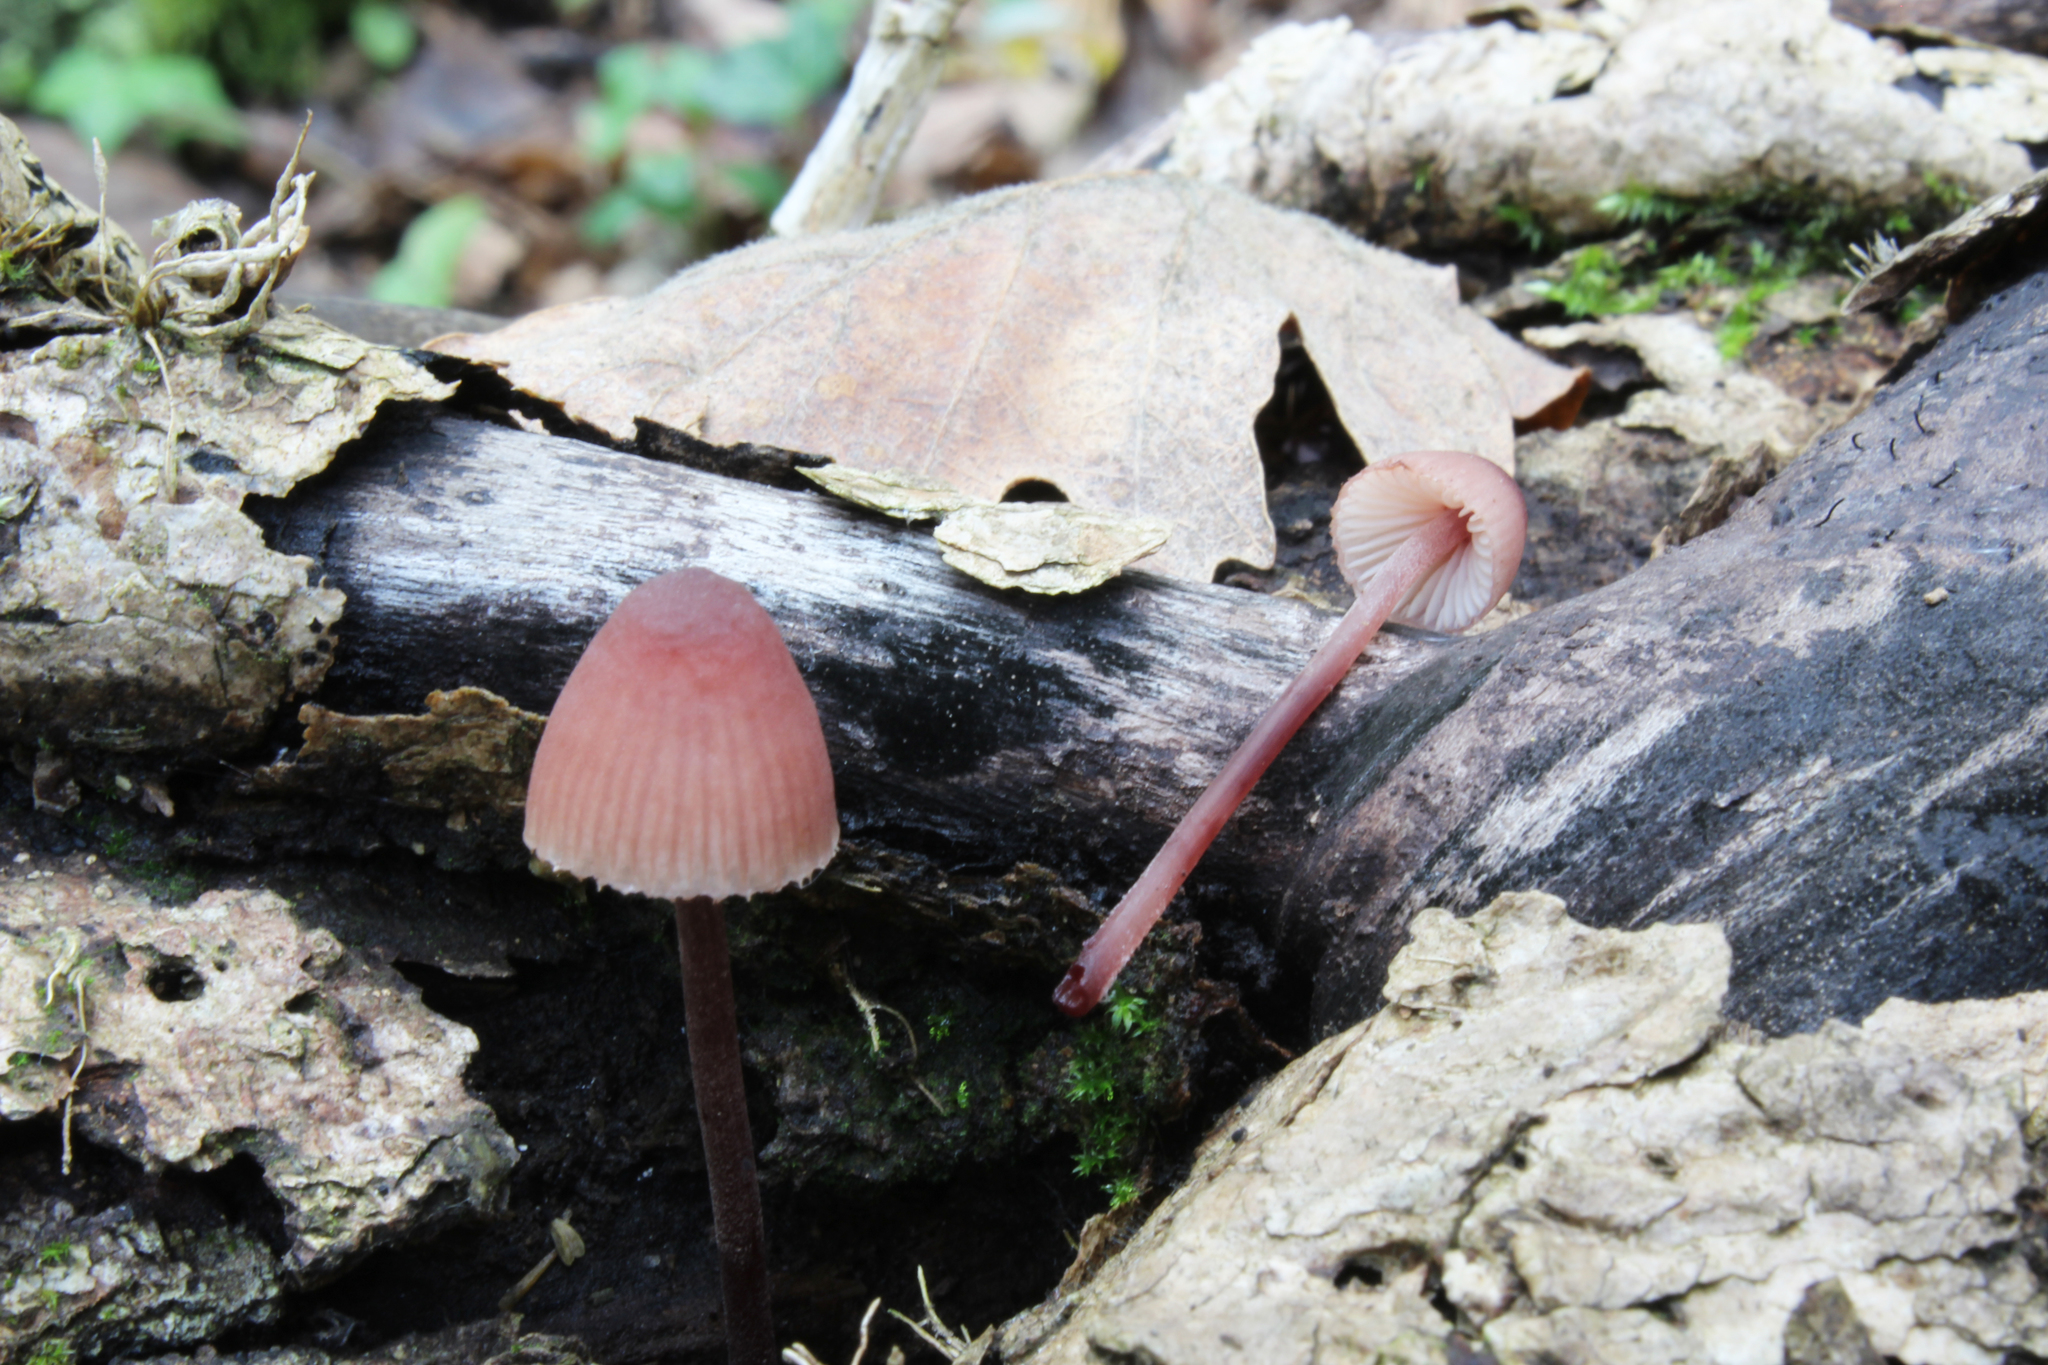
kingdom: Fungi
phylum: Basidiomycota
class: Agaricomycetes
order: Agaricales
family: Mycenaceae
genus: Mycena
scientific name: Mycena haematopus
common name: Burgundydrop bonnet
